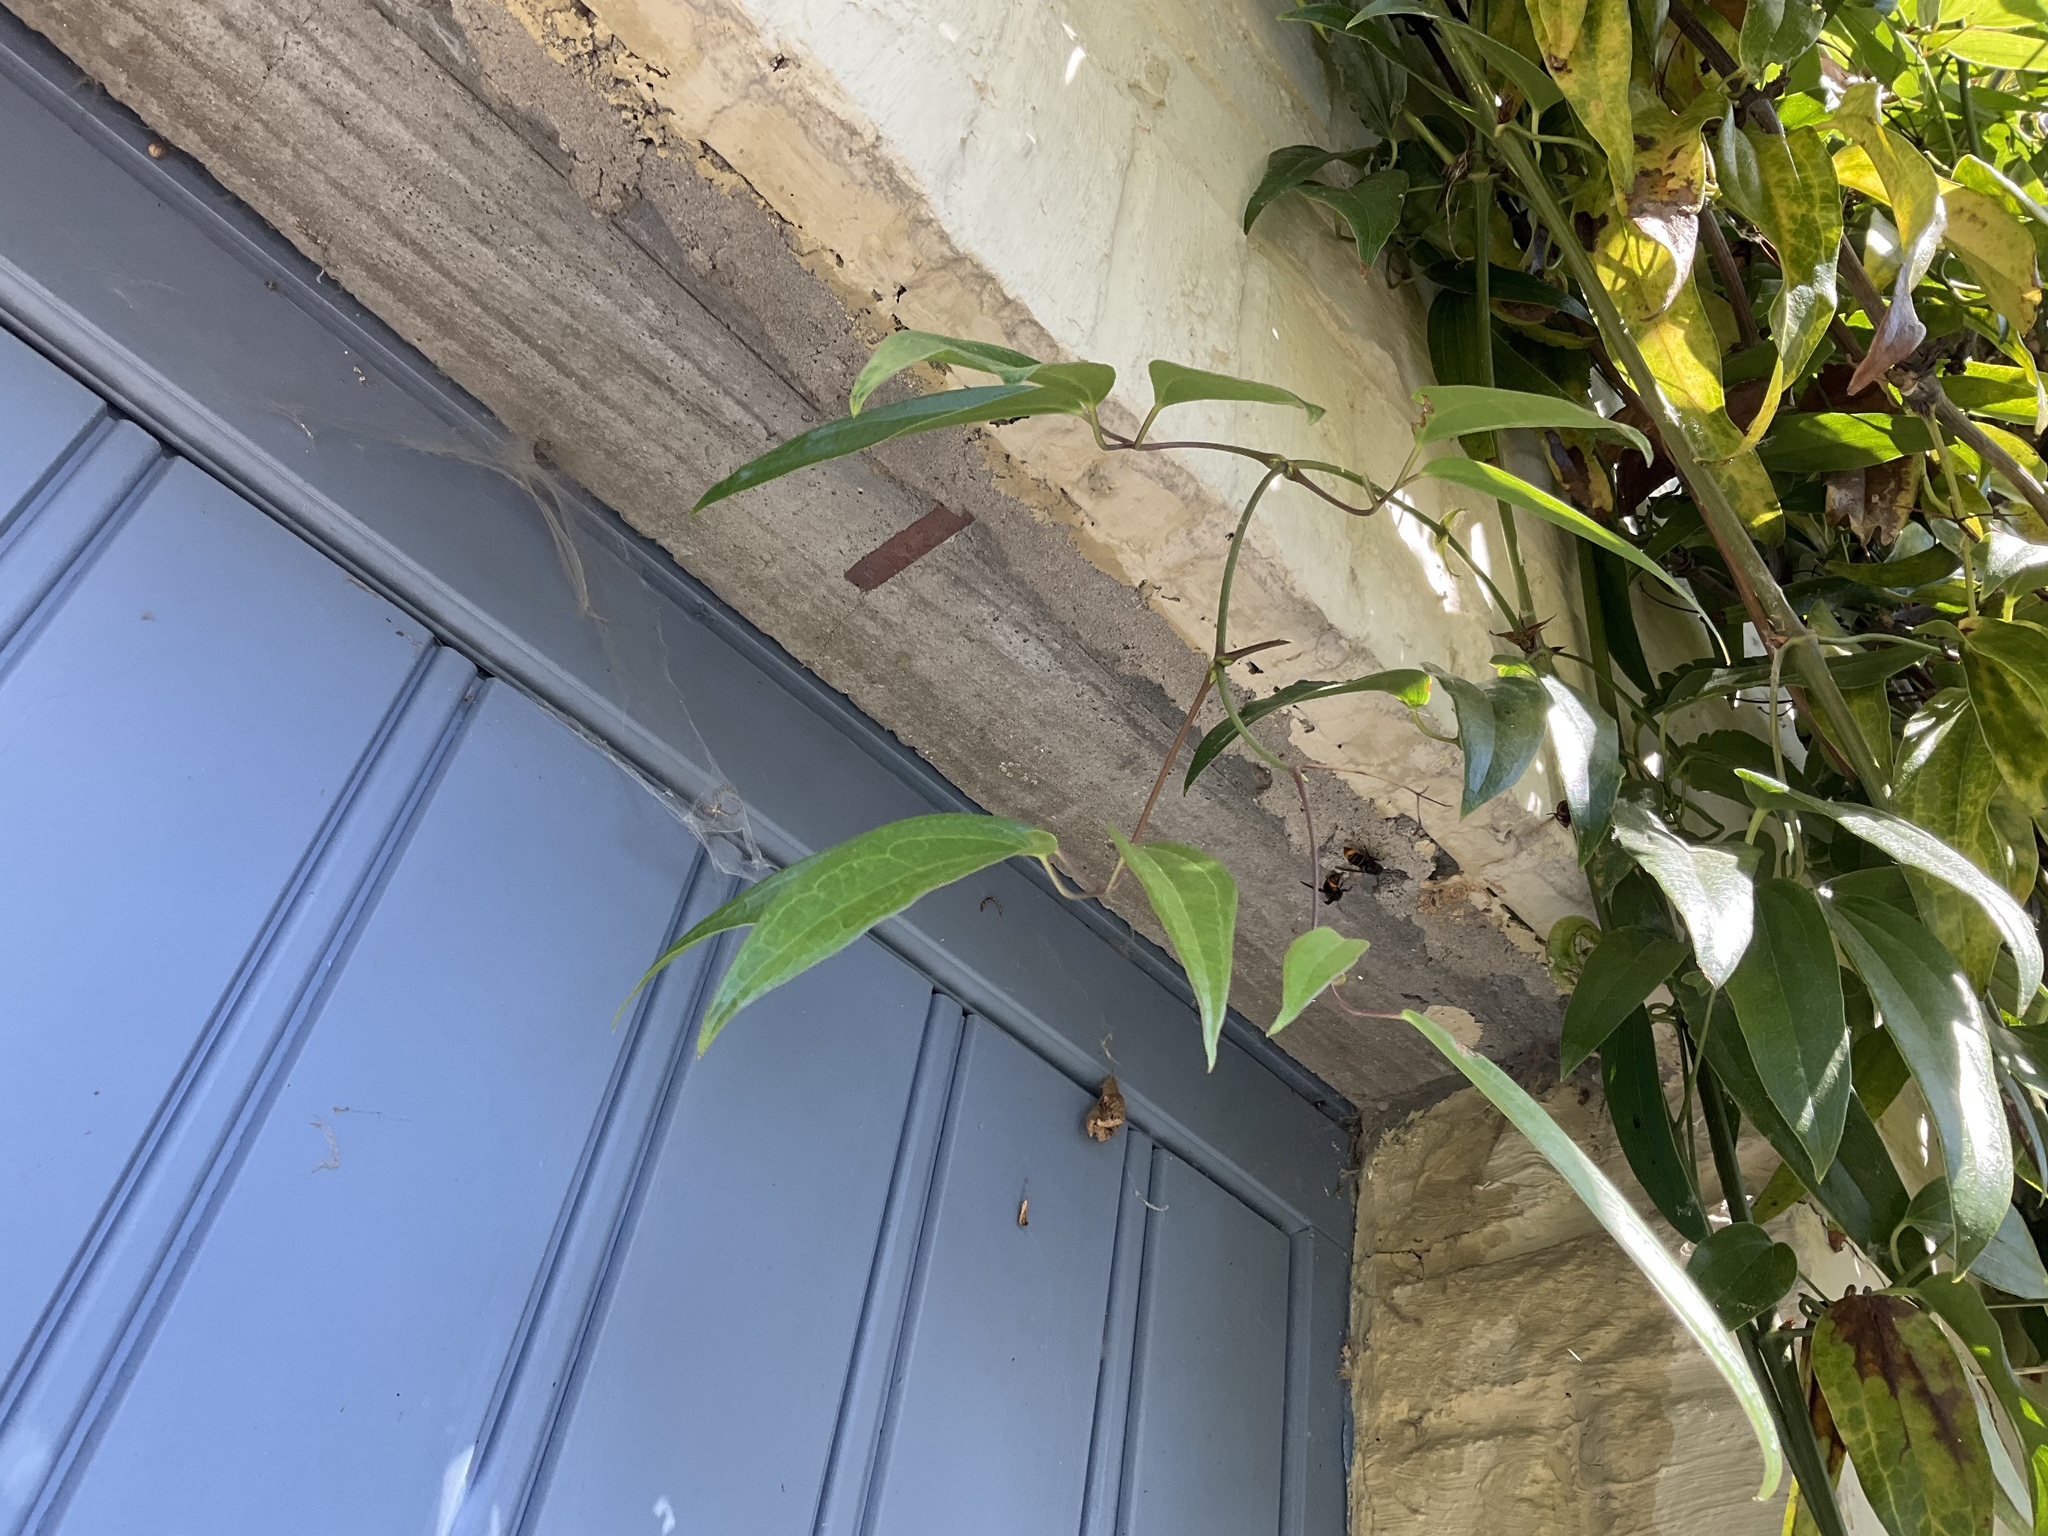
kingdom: Animalia
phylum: Arthropoda
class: Insecta
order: Hymenoptera
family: Vespidae
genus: Vespa
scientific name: Vespa velutina
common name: Asian hornet
